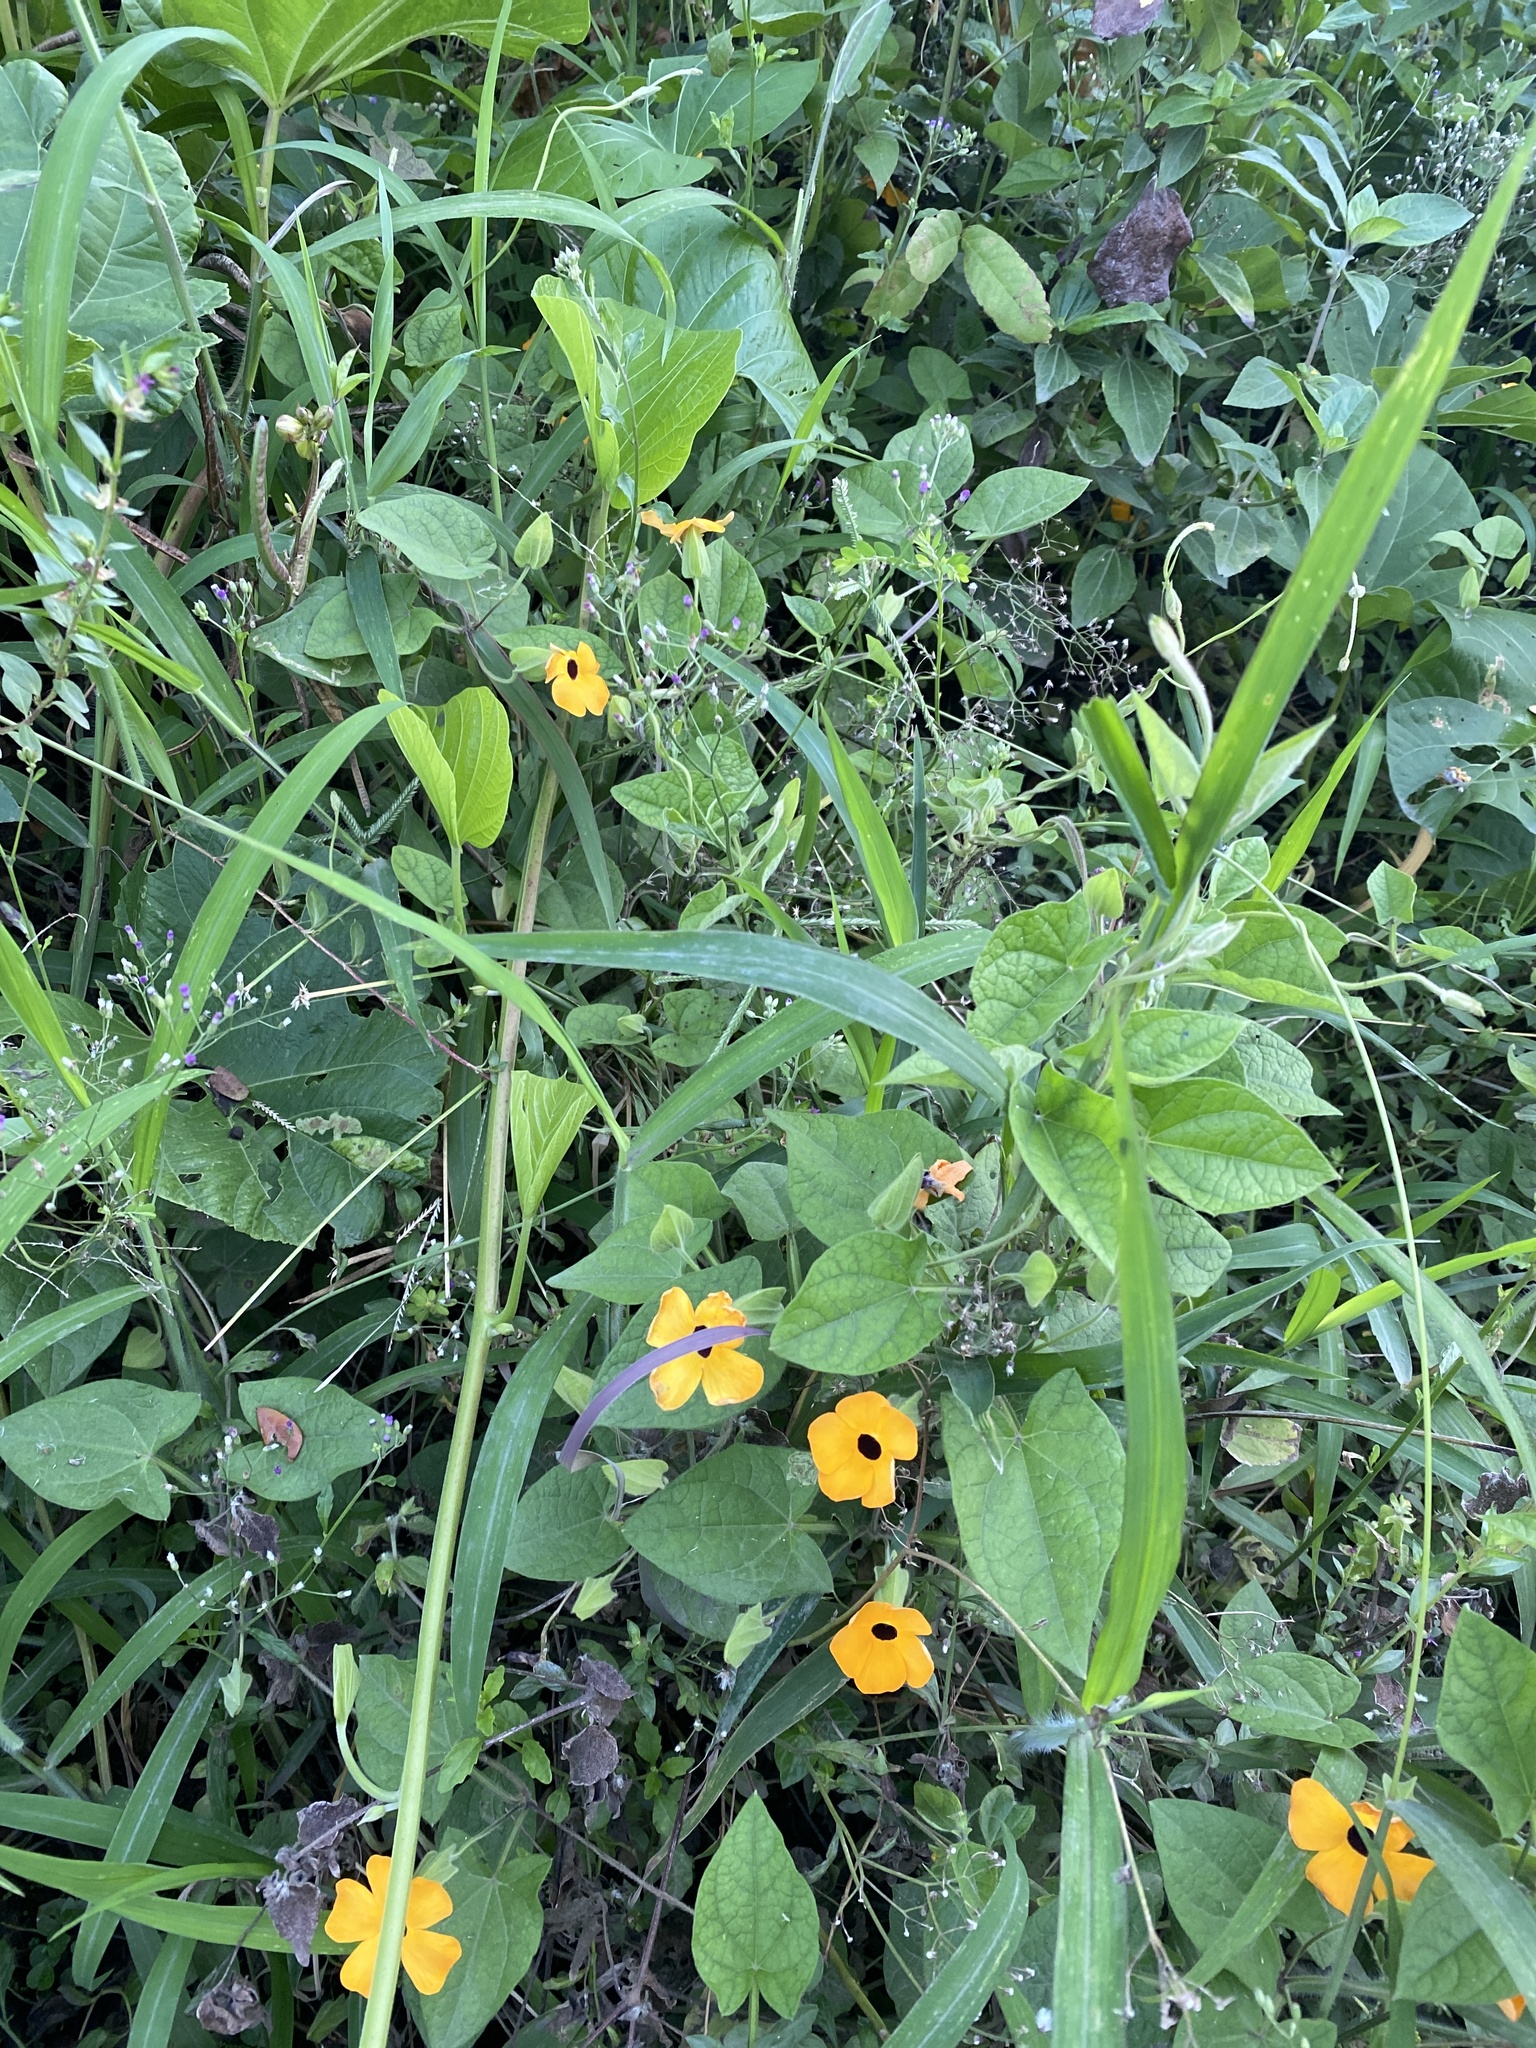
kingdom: Plantae
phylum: Tracheophyta
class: Magnoliopsida
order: Lamiales
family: Acanthaceae
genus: Thunbergia
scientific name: Thunbergia alata
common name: Blackeyed susan vine
